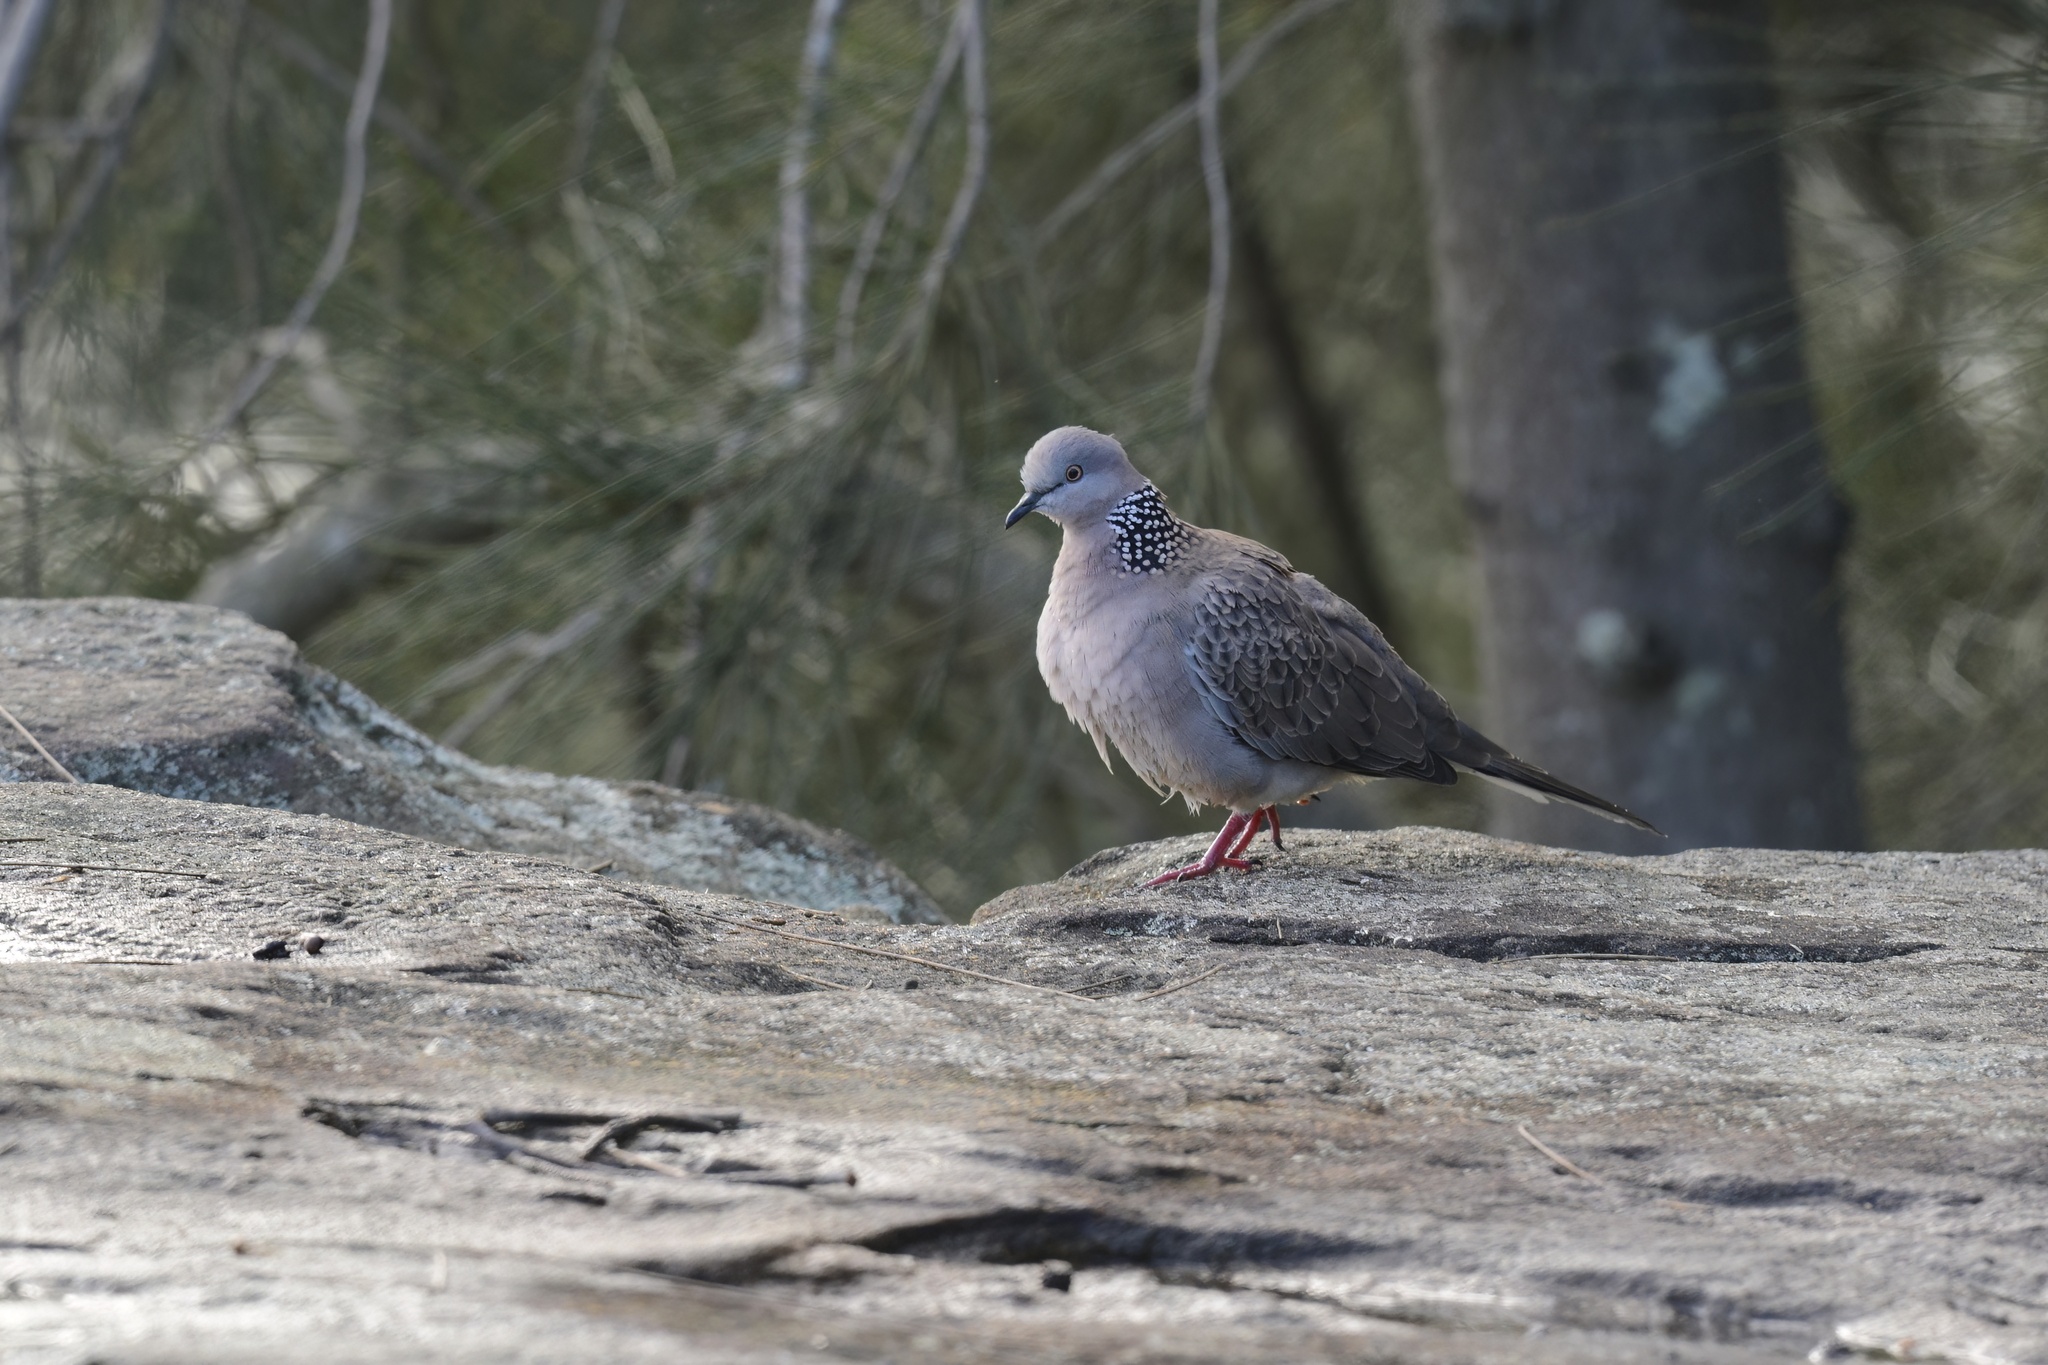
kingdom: Animalia
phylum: Chordata
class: Aves
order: Columbiformes
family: Columbidae
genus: Spilopelia
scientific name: Spilopelia chinensis
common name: Spotted dove
